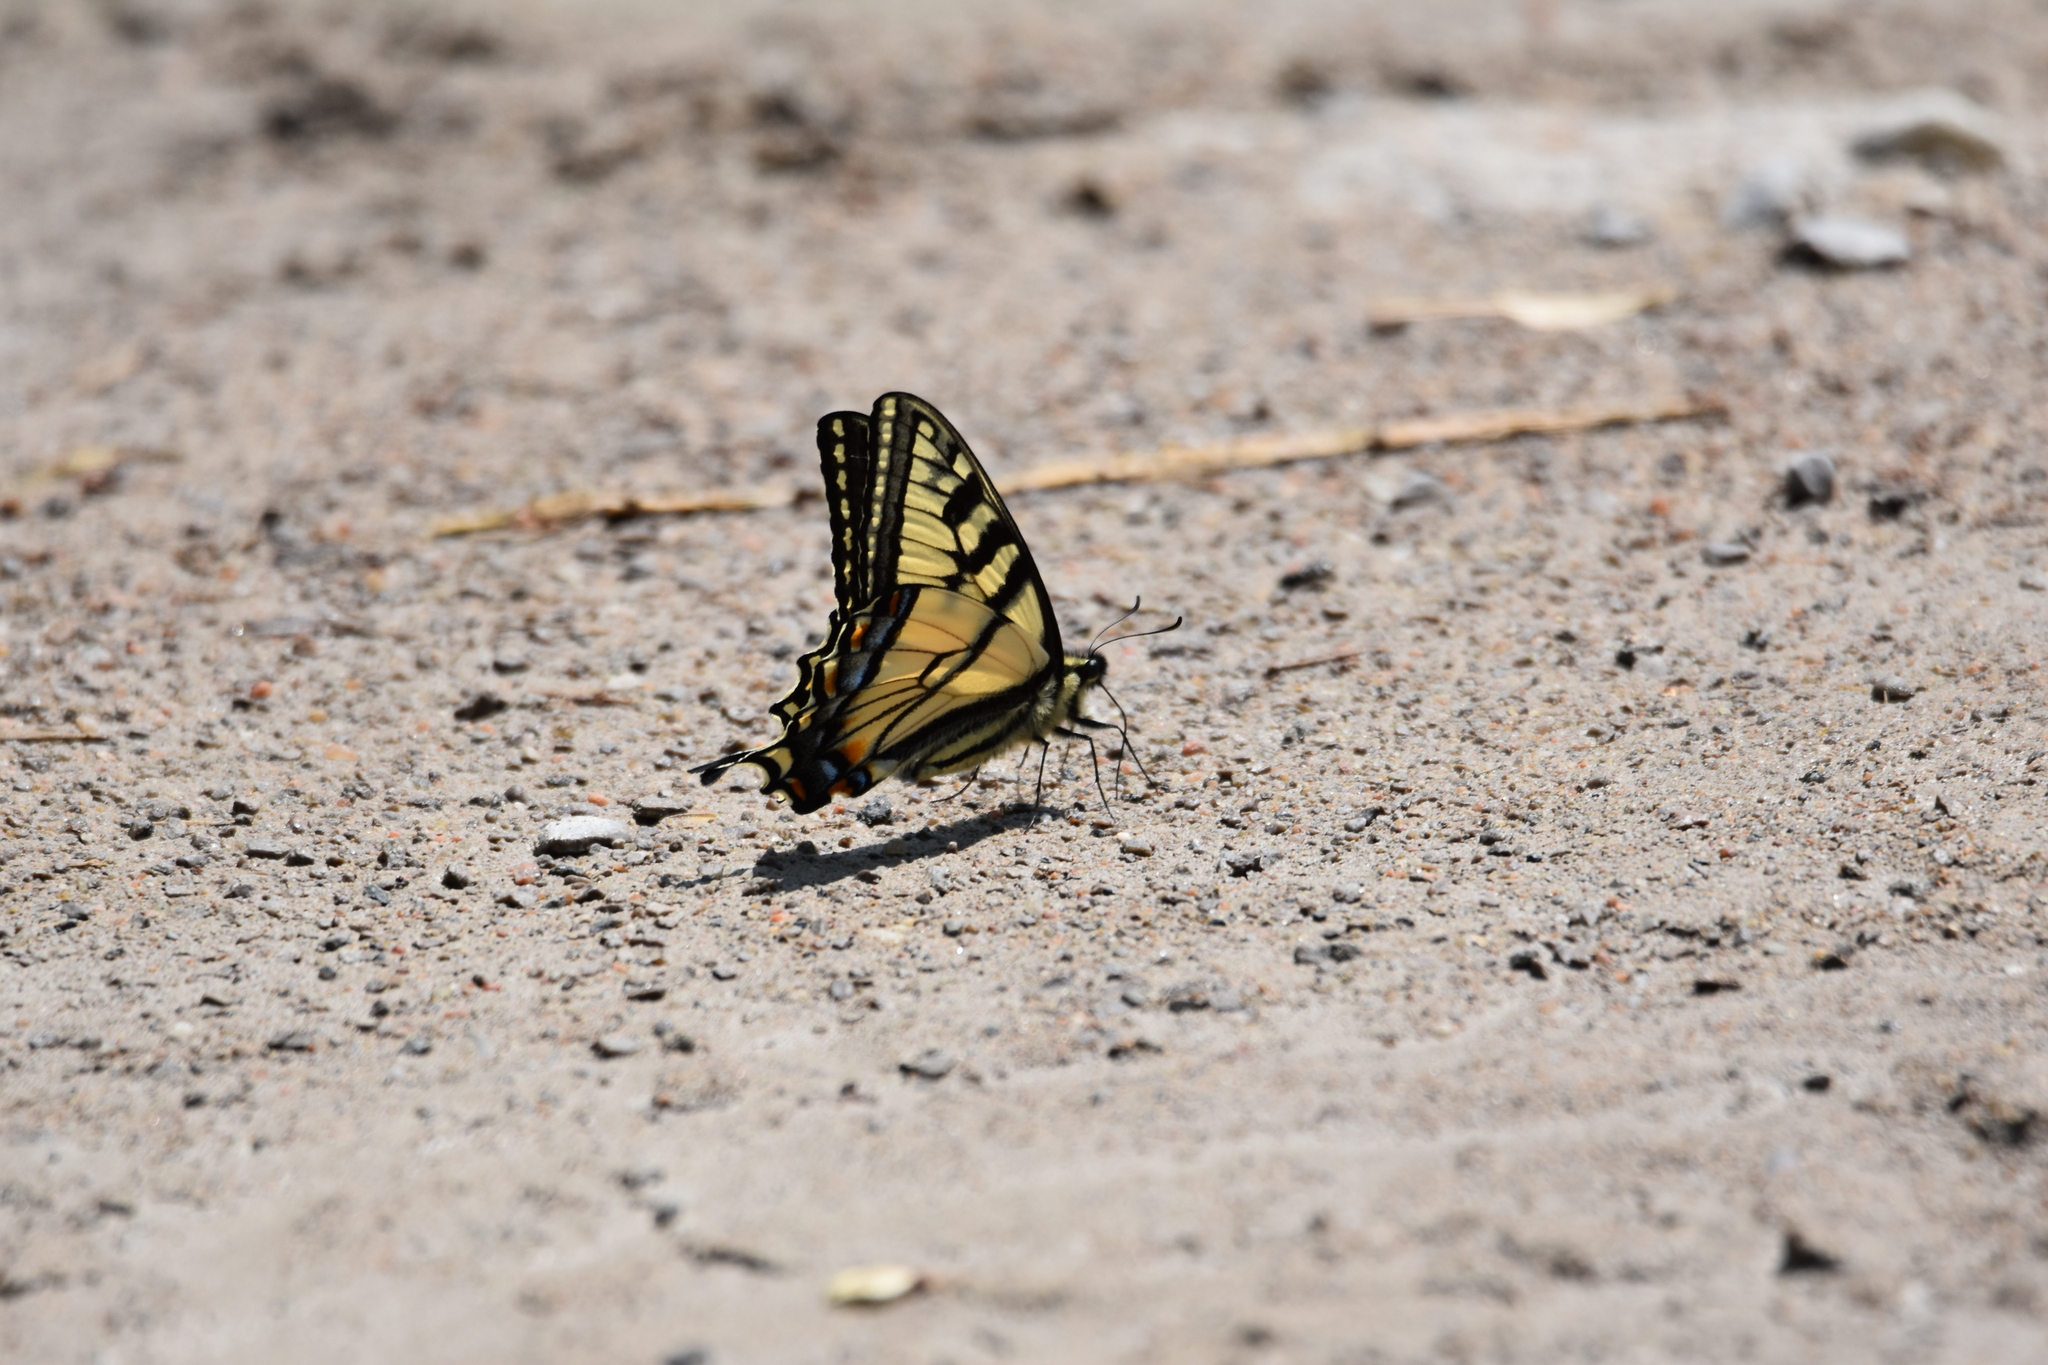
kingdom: Animalia
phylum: Arthropoda
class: Insecta
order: Lepidoptera
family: Papilionidae
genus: Papilio
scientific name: Papilio canadensis
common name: Canadian tiger swallowtail
